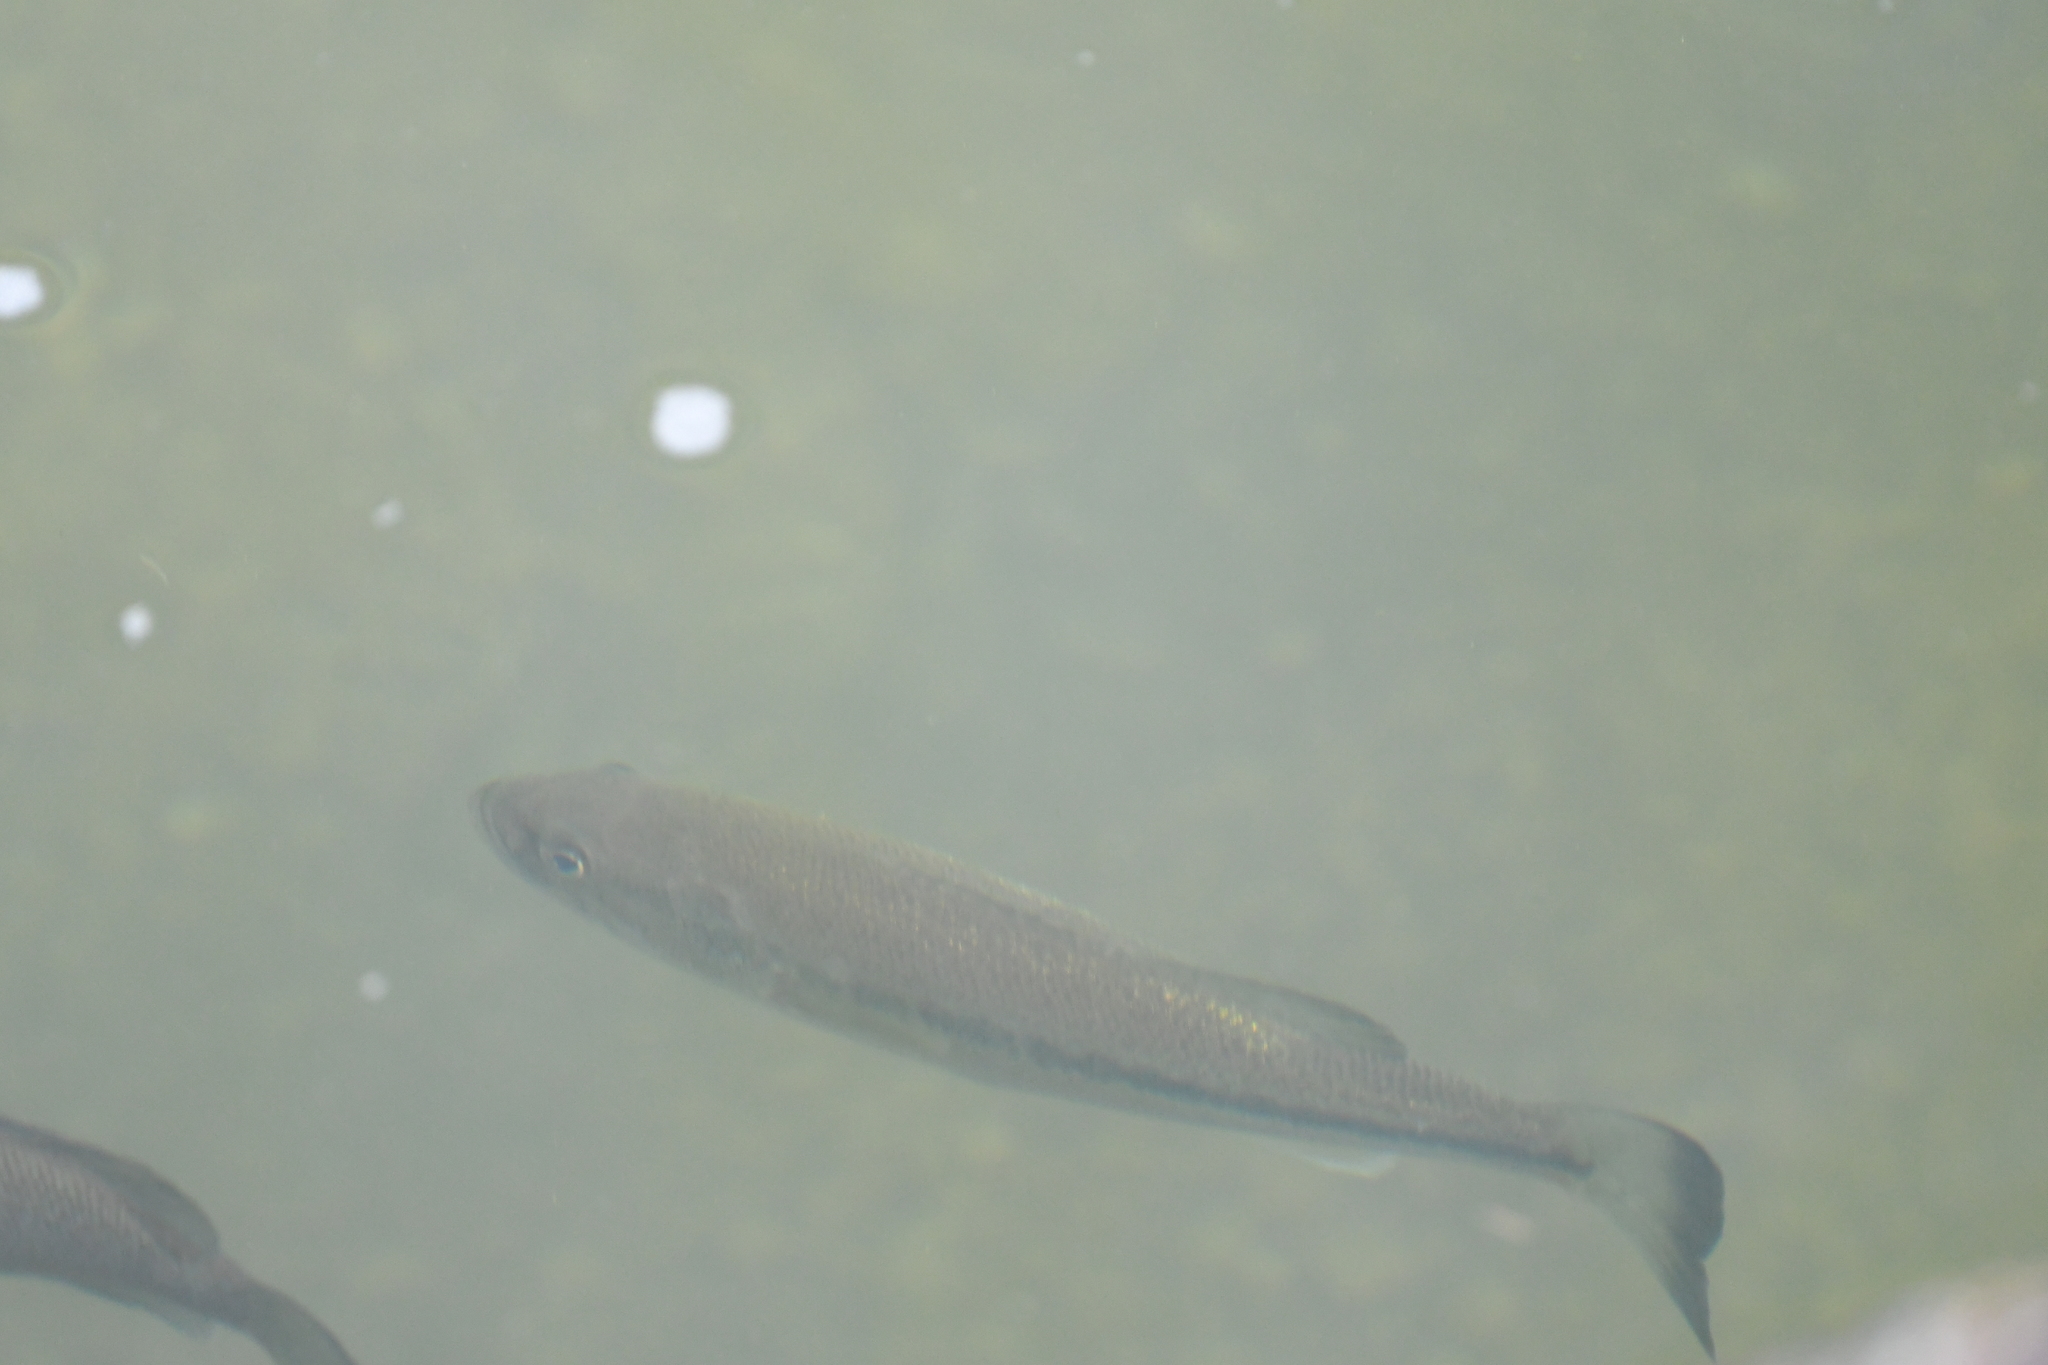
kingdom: Animalia
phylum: Chordata
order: Perciformes
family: Centrarchidae
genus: Micropterus
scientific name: Micropterus
